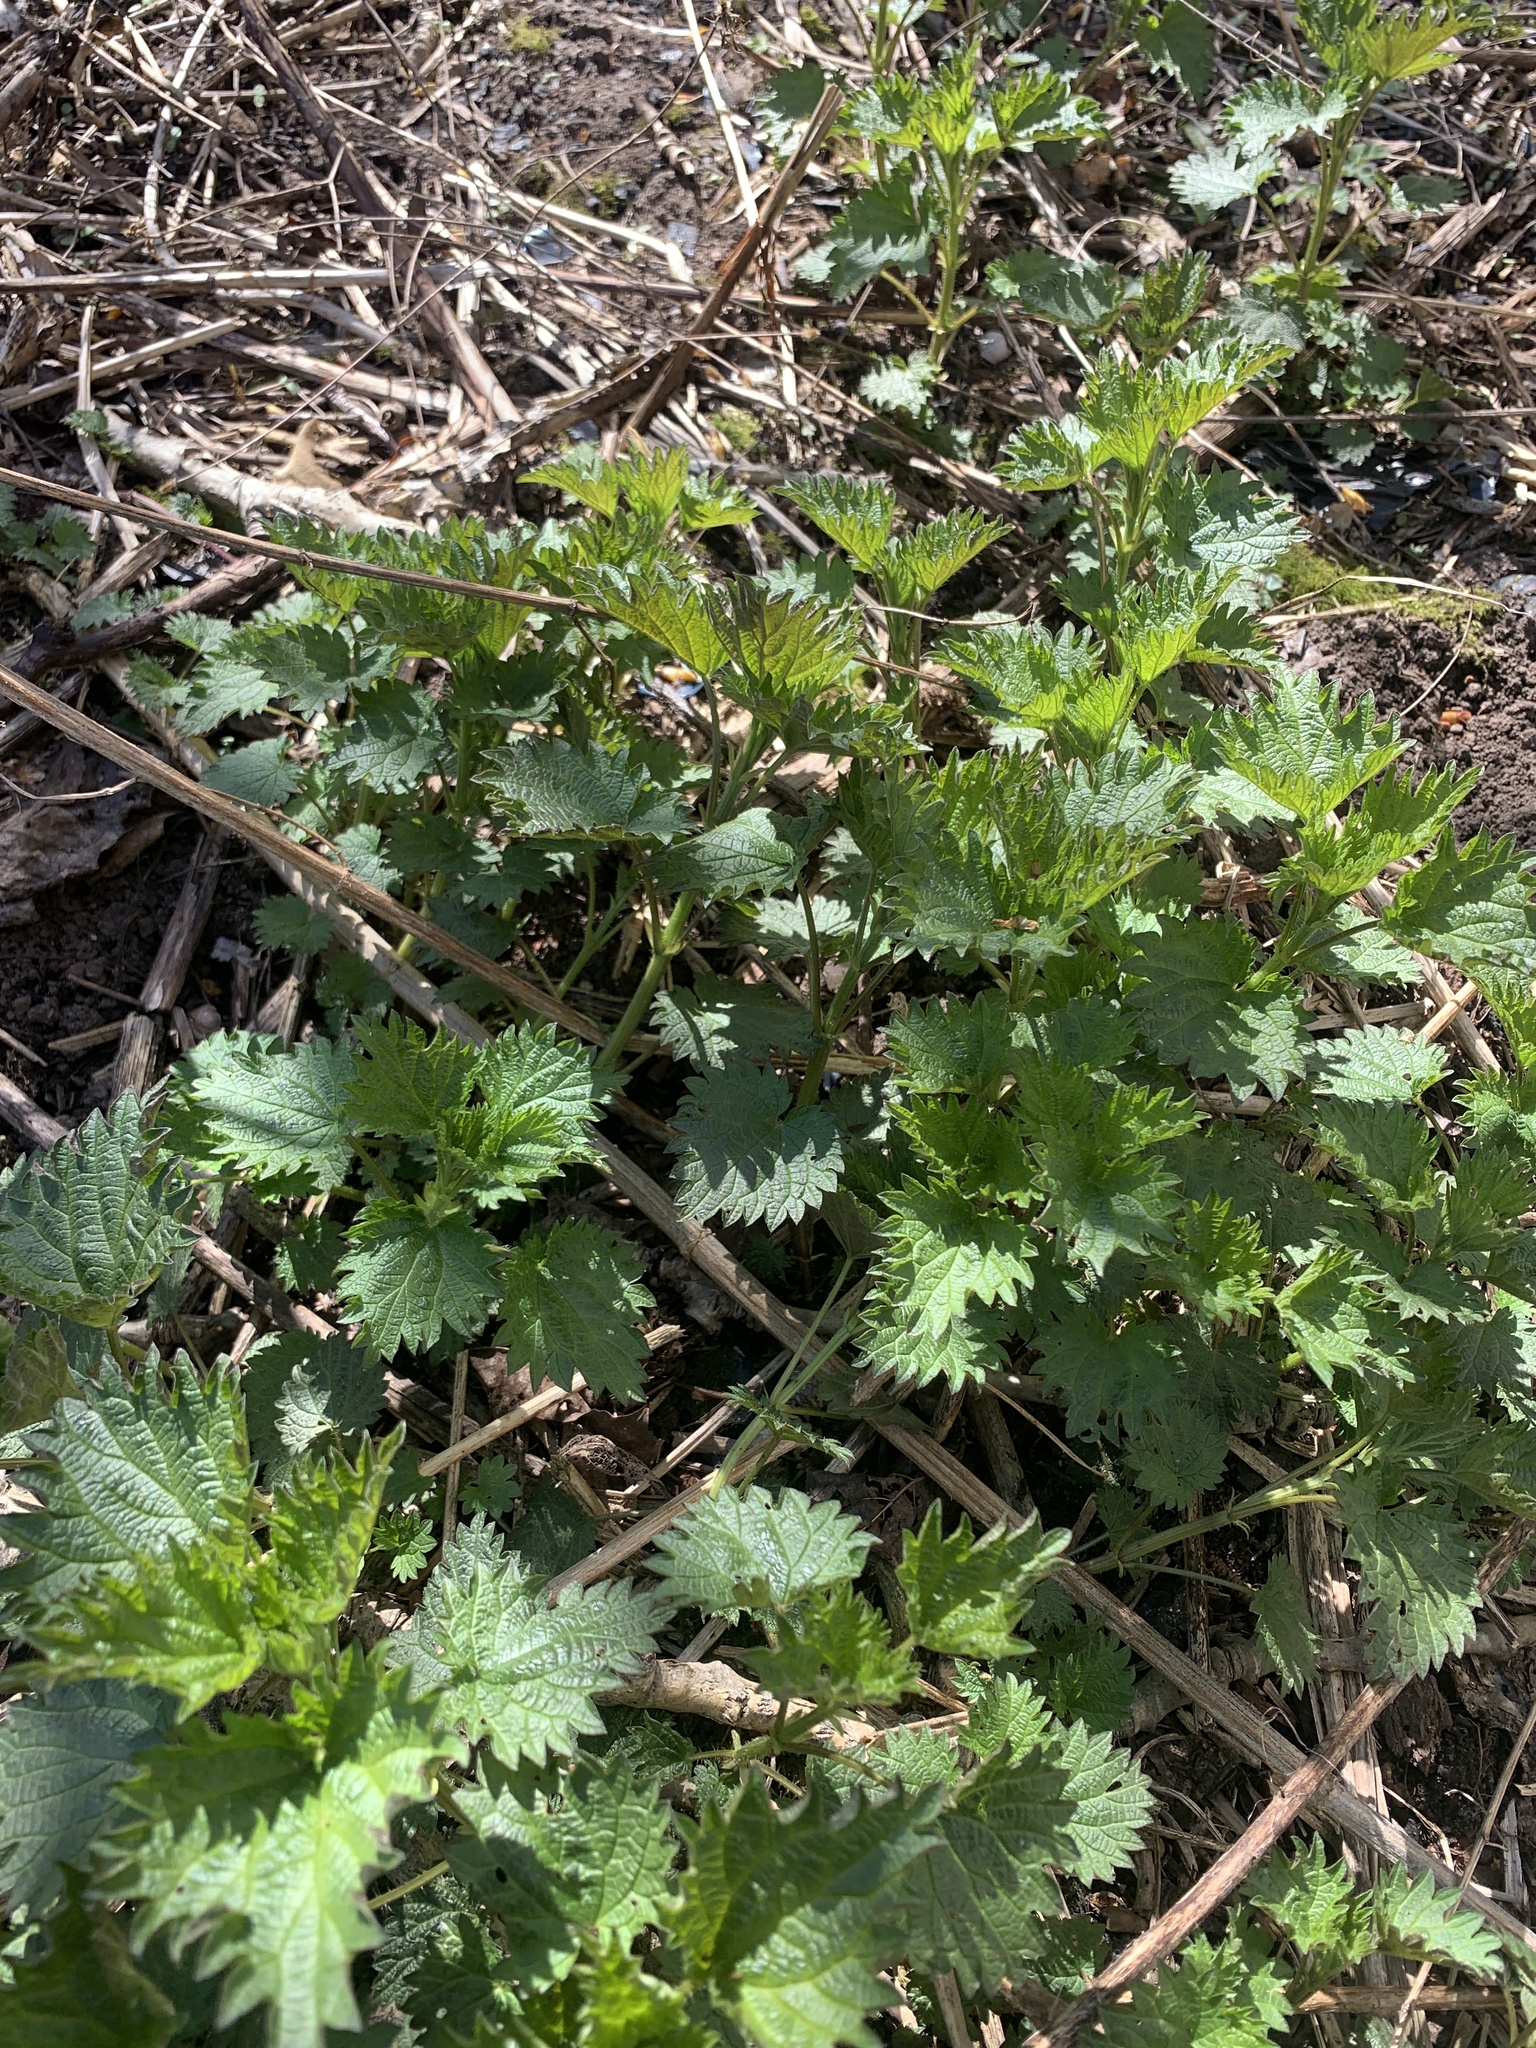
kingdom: Plantae
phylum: Tracheophyta
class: Magnoliopsida
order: Rosales
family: Urticaceae
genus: Urtica
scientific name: Urtica dioica
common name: Common nettle
